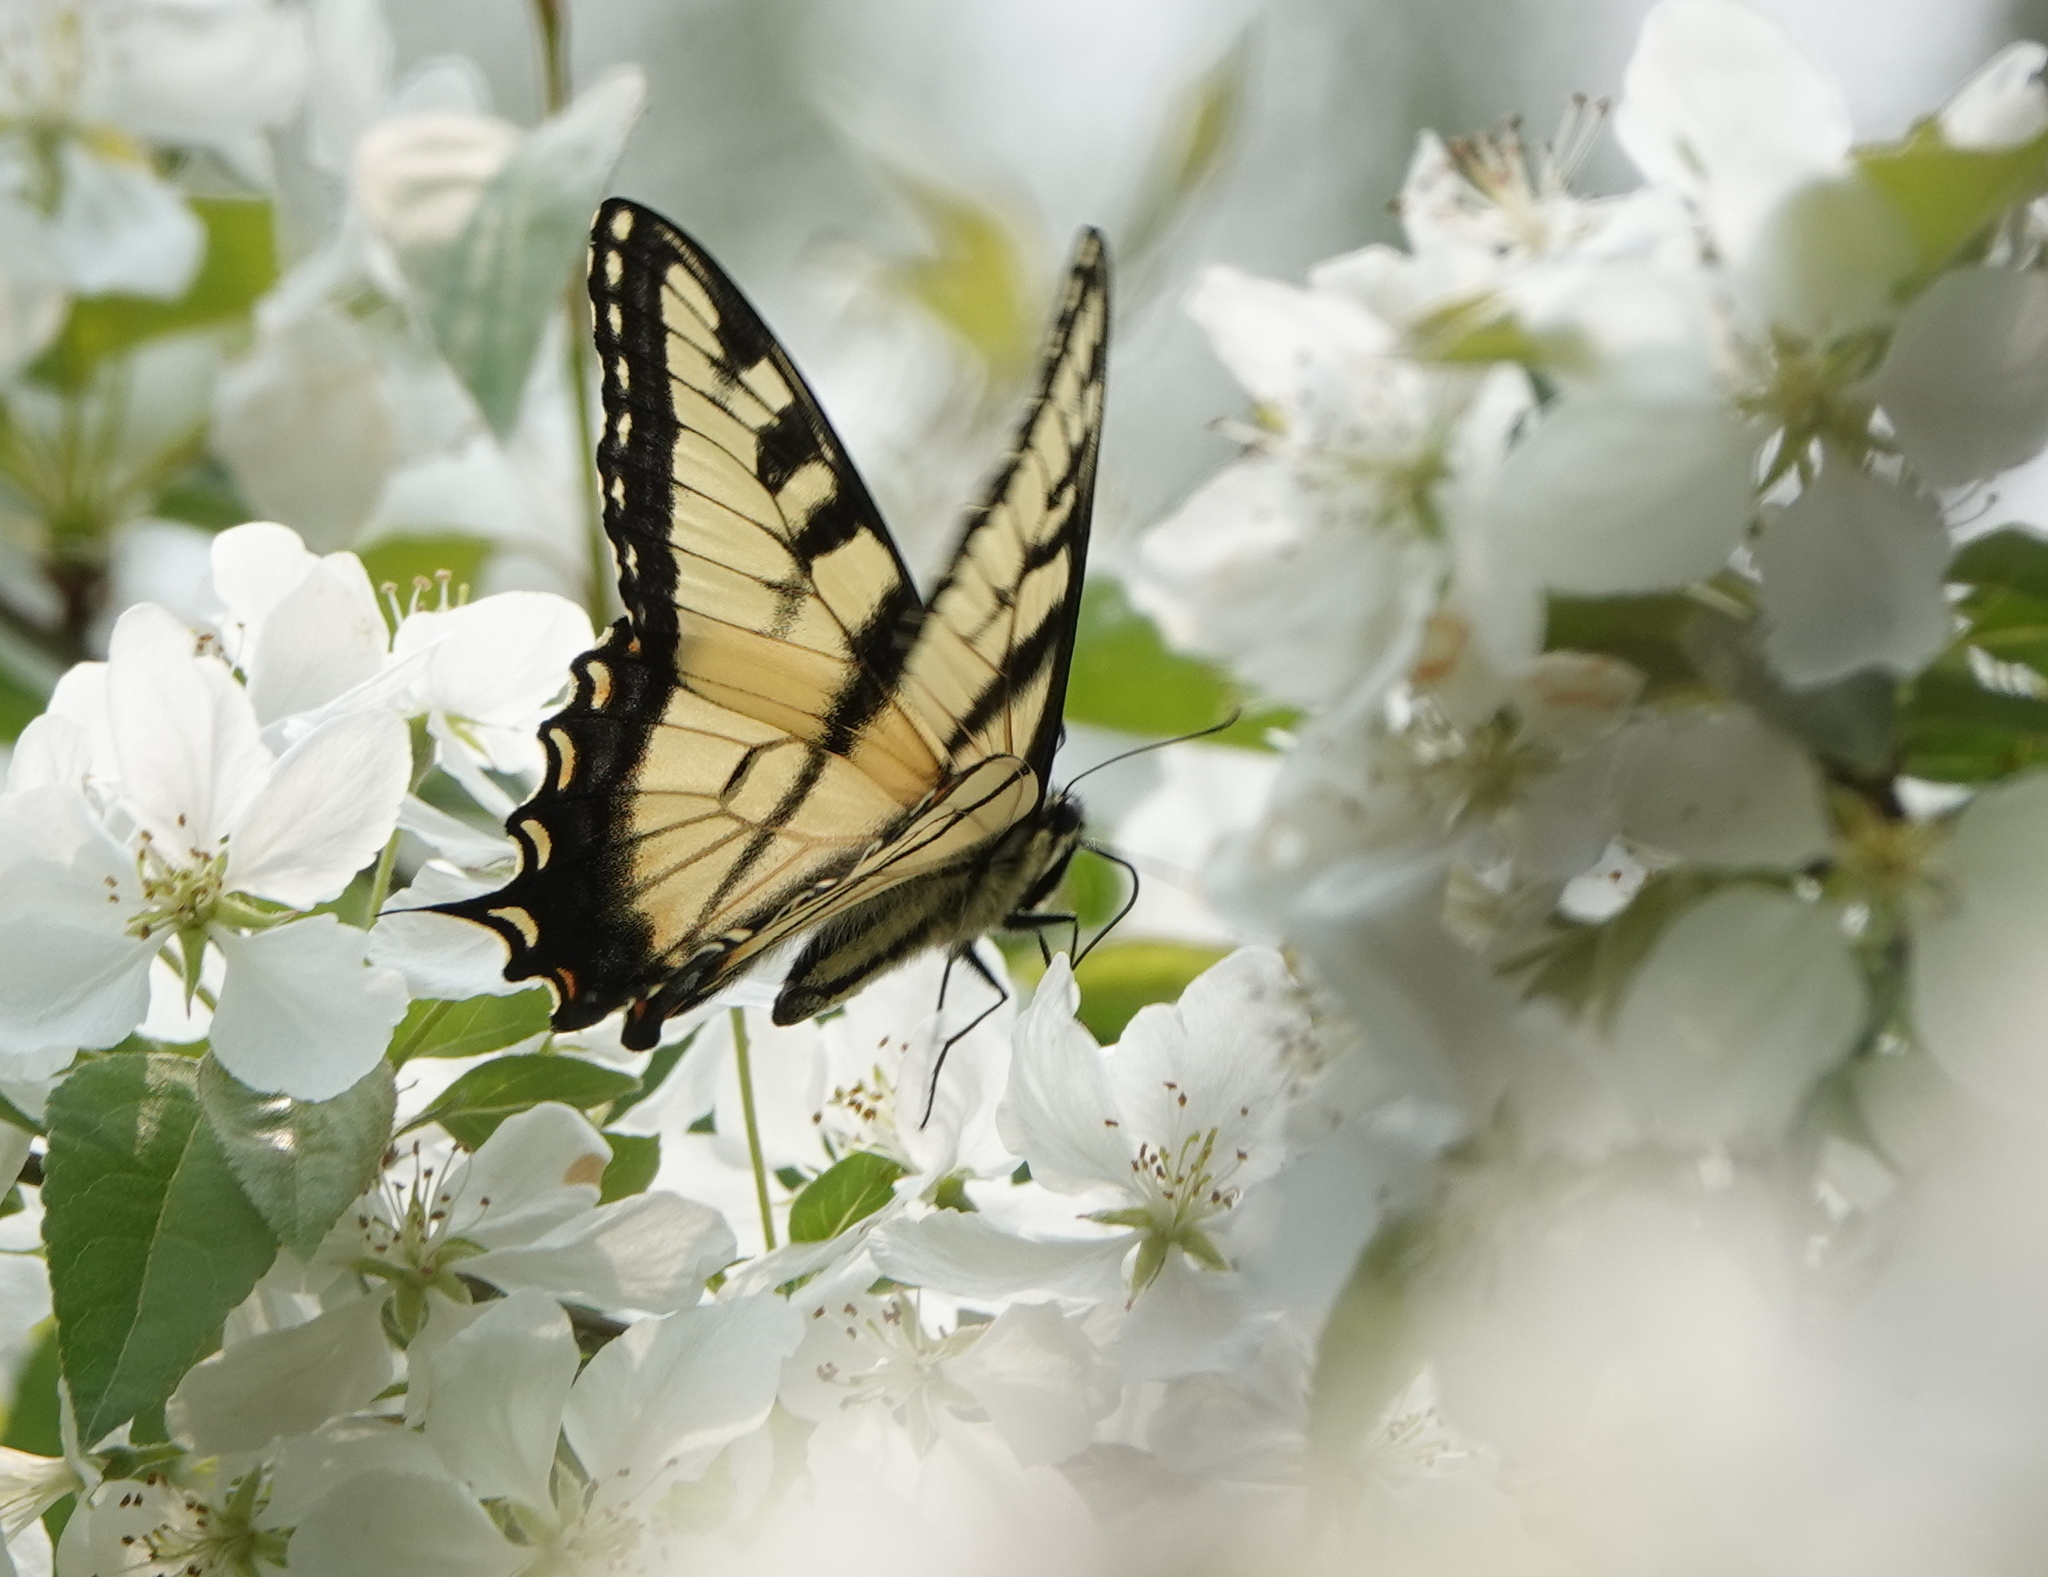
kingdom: Animalia
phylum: Arthropoda
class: Insecta
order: Lepidoptera
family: Papilionidae
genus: Papilio
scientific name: Papilio glaucus
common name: Tiger swallowtail
